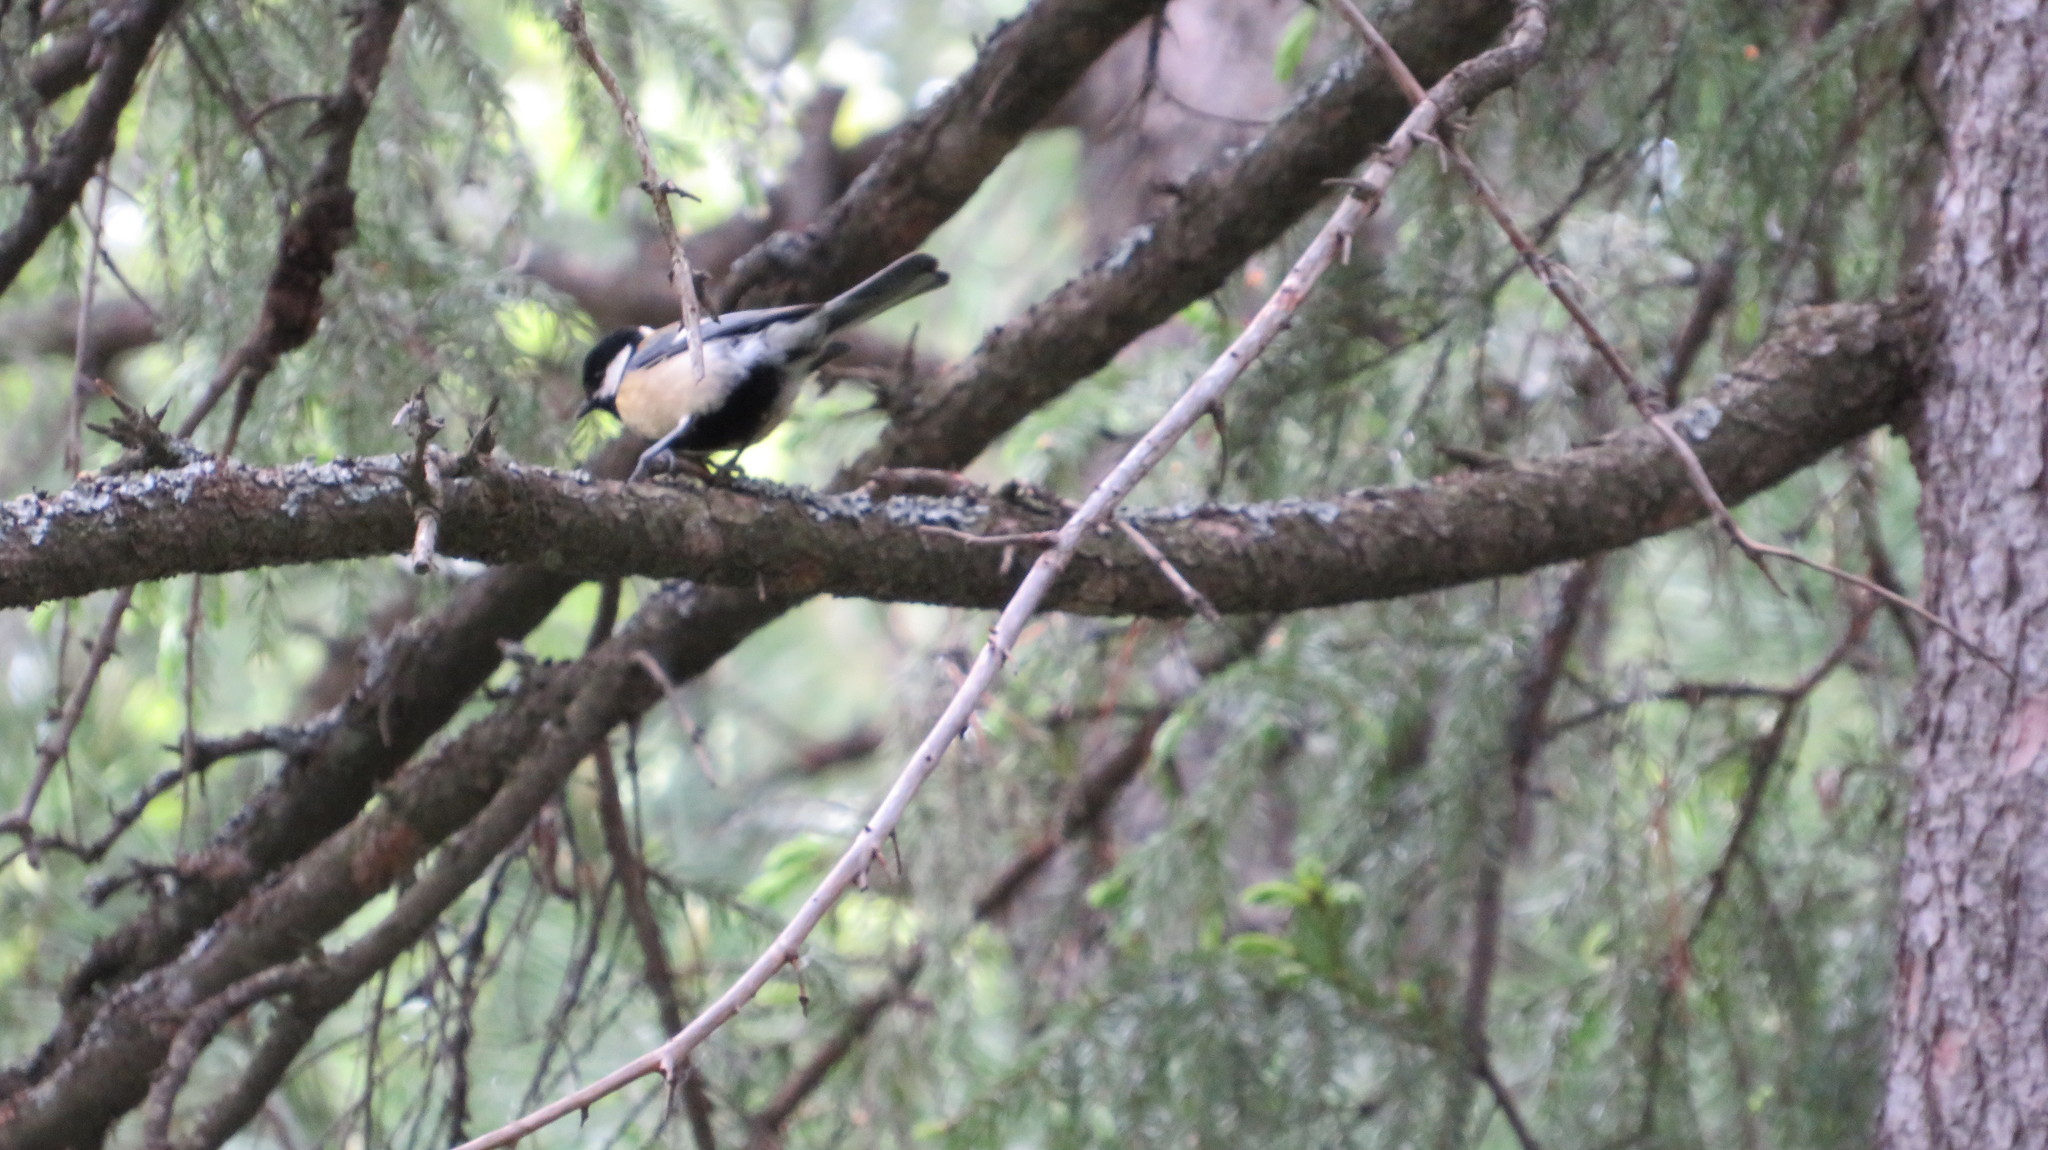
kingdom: Animalia
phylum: Chordata
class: Aves
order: Passeriformes
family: Paridae
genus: Parus
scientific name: Parus major
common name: Great tit
